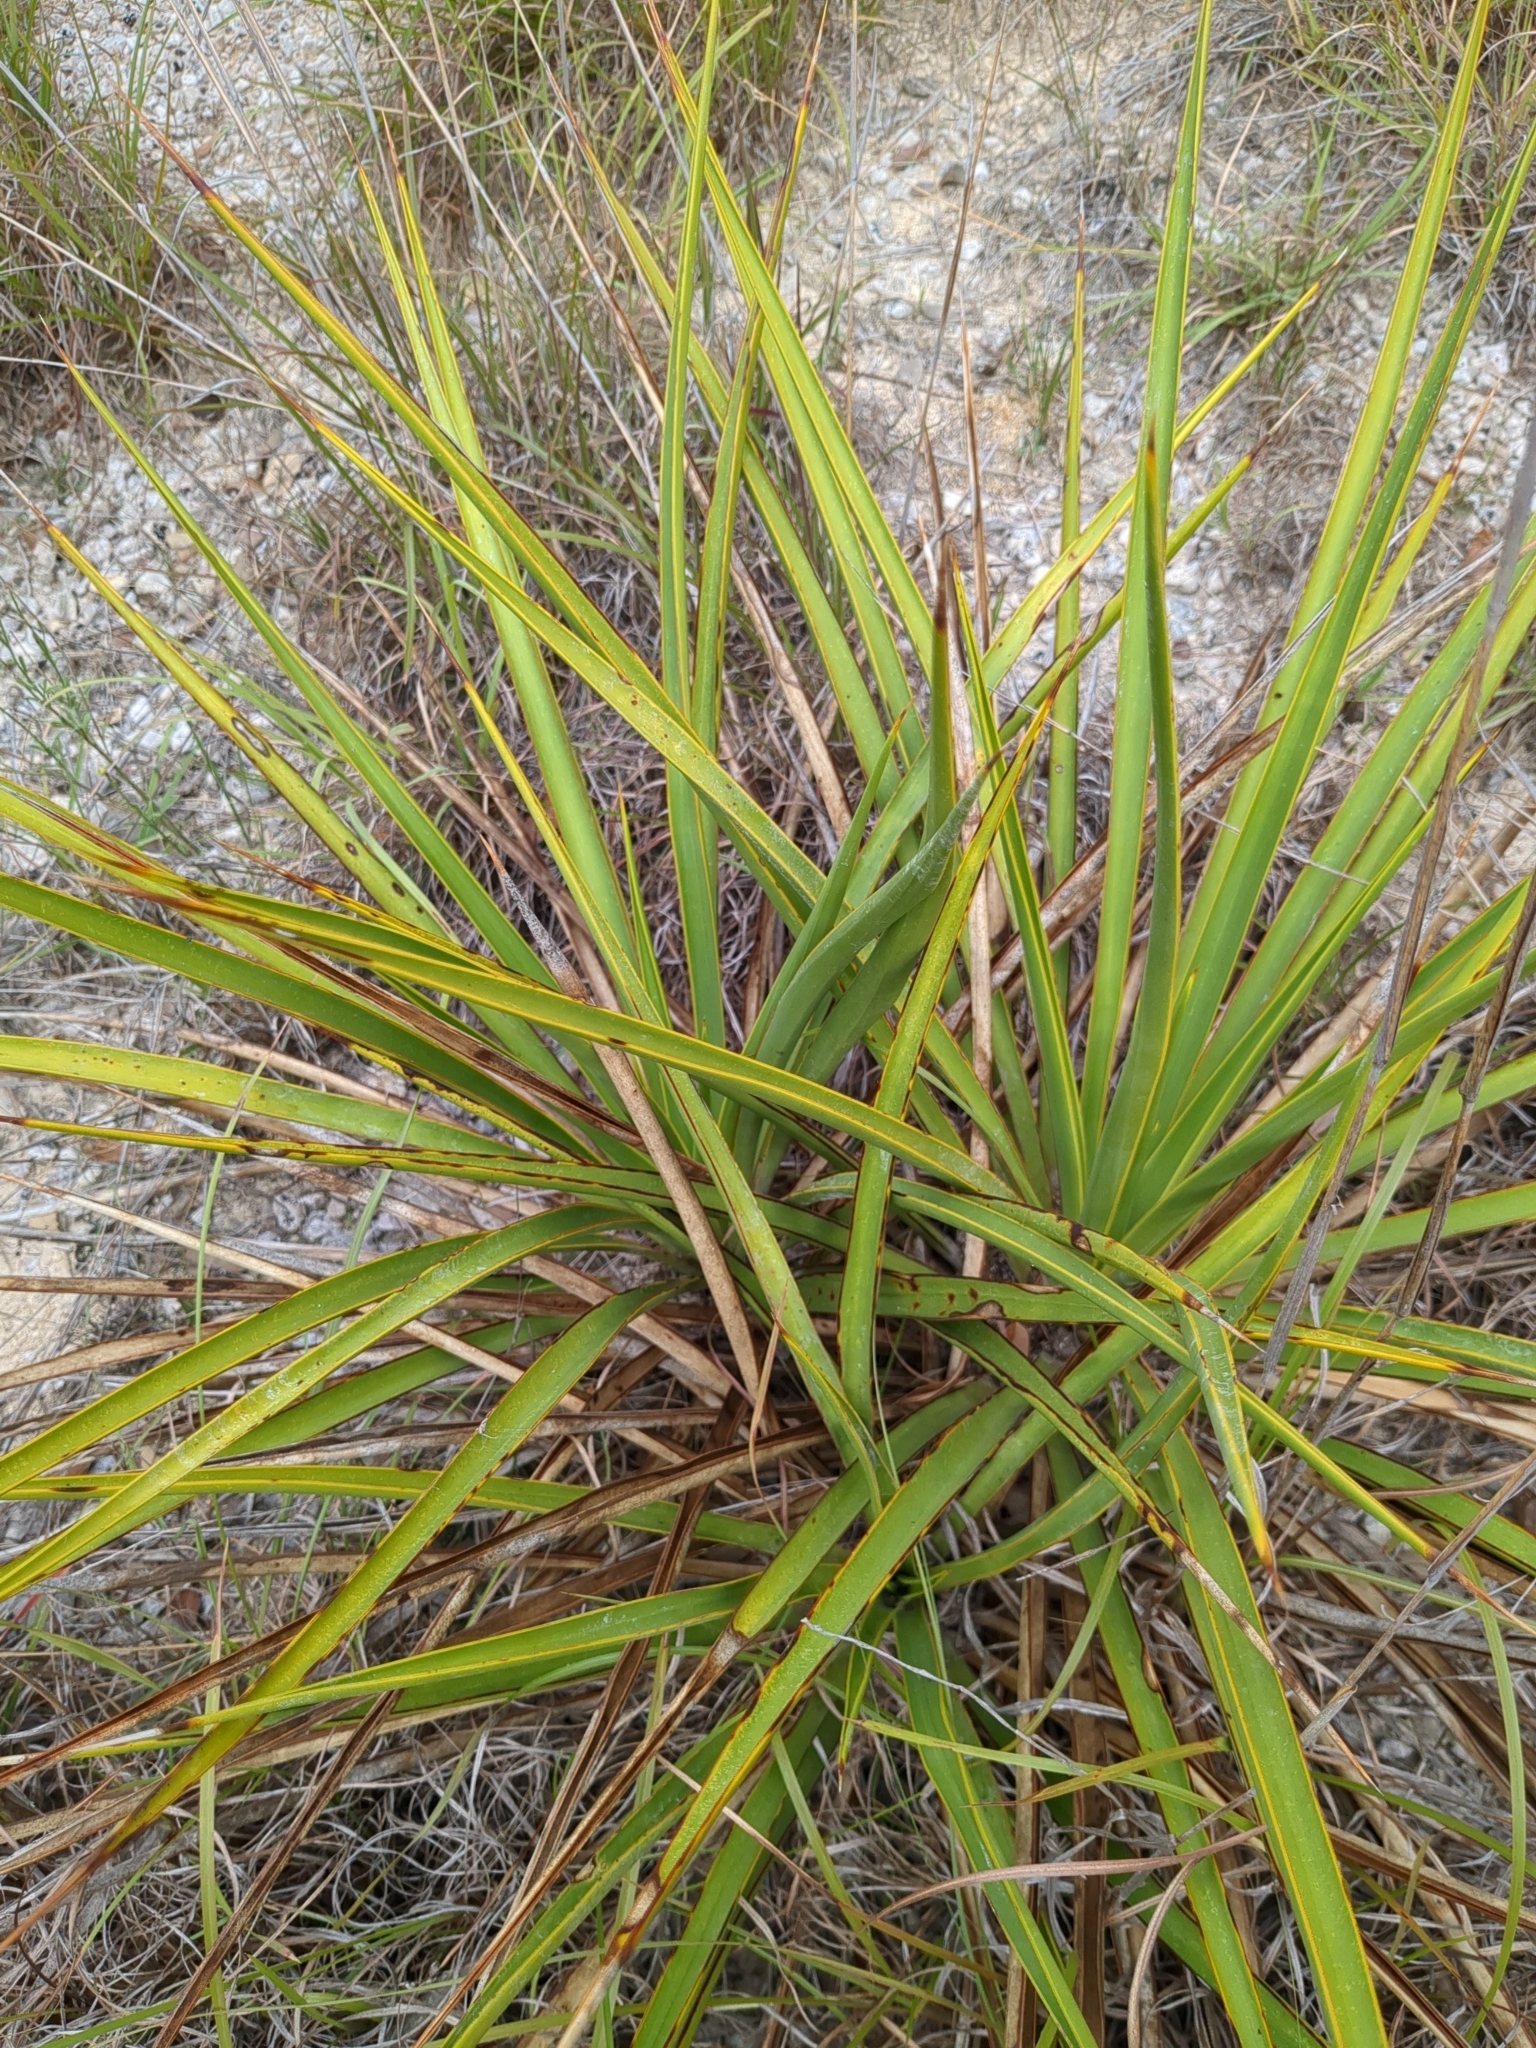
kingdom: Plantae
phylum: Tracheophyta
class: Liliopsida
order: Asparagales
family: Asparagaceae
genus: Yucca
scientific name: Yucca rupicola
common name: Twisted-leaf spanish-dagger
